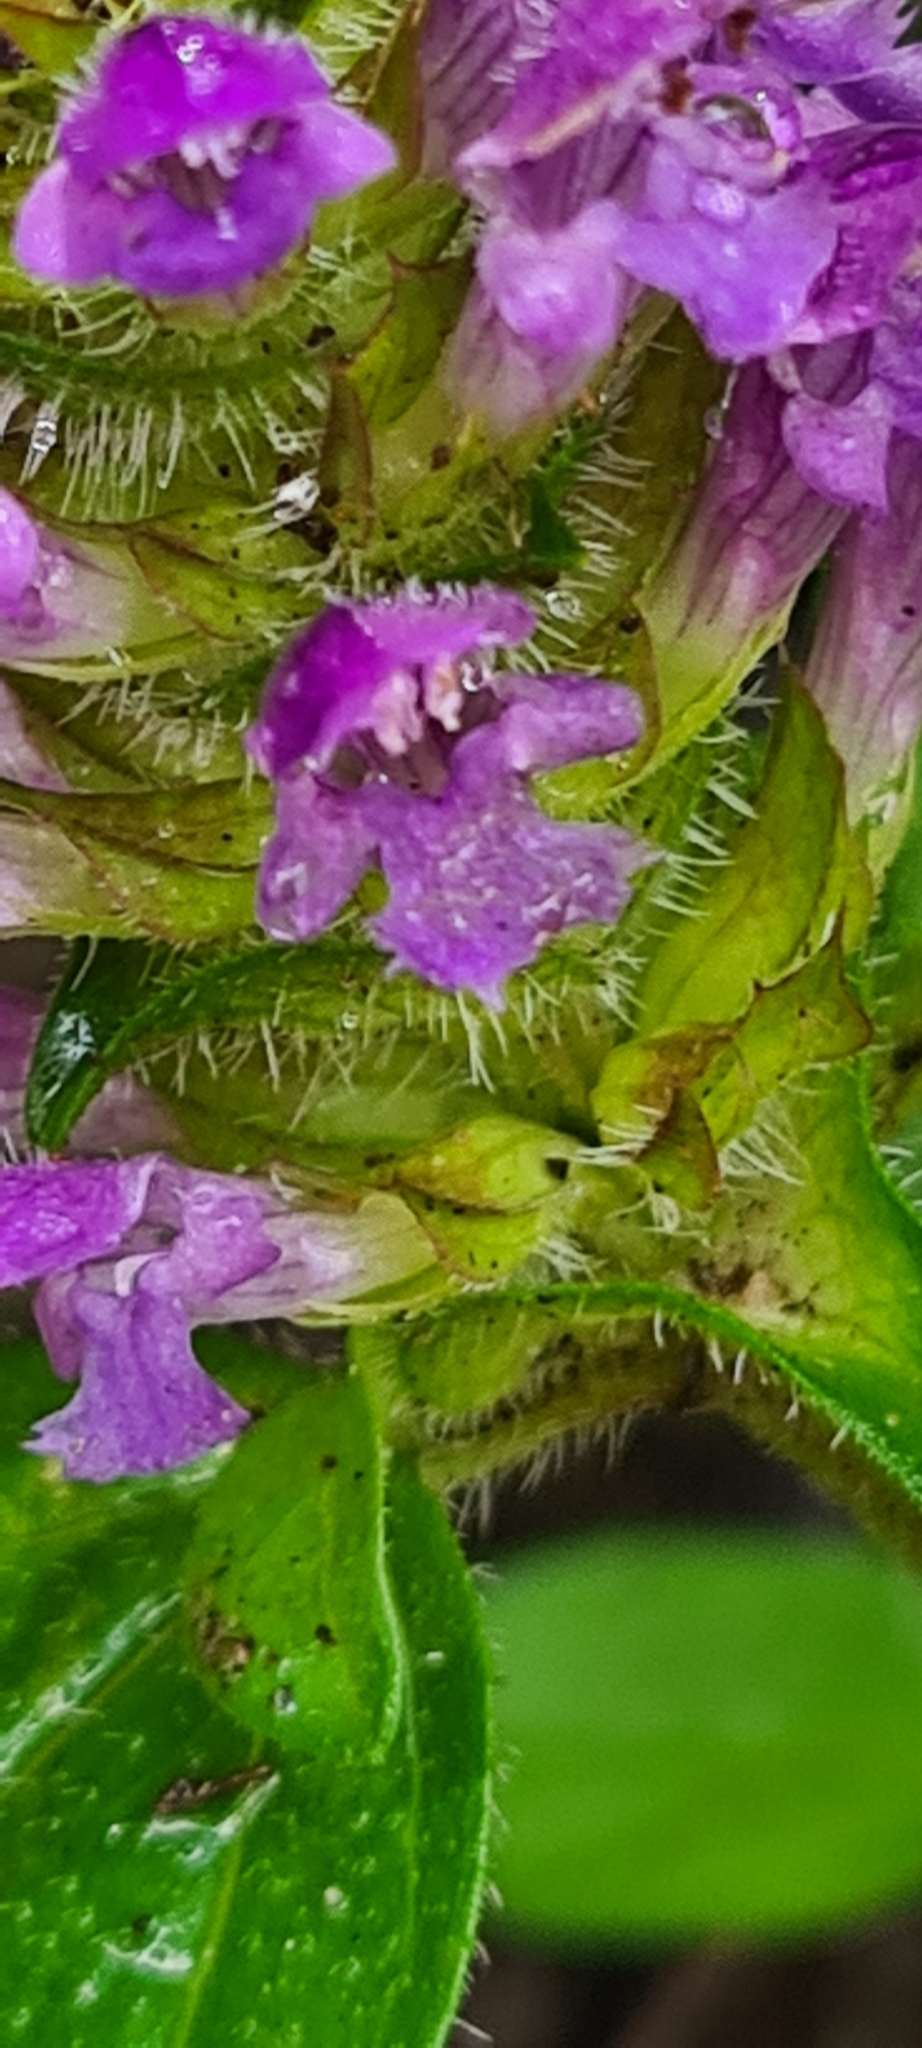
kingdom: Plantae
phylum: Tracheophyta
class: Magnoliopsida
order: Lamiales
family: Lamiaceae
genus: Prunella
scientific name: Prunella vulgaris
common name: Heal-all
